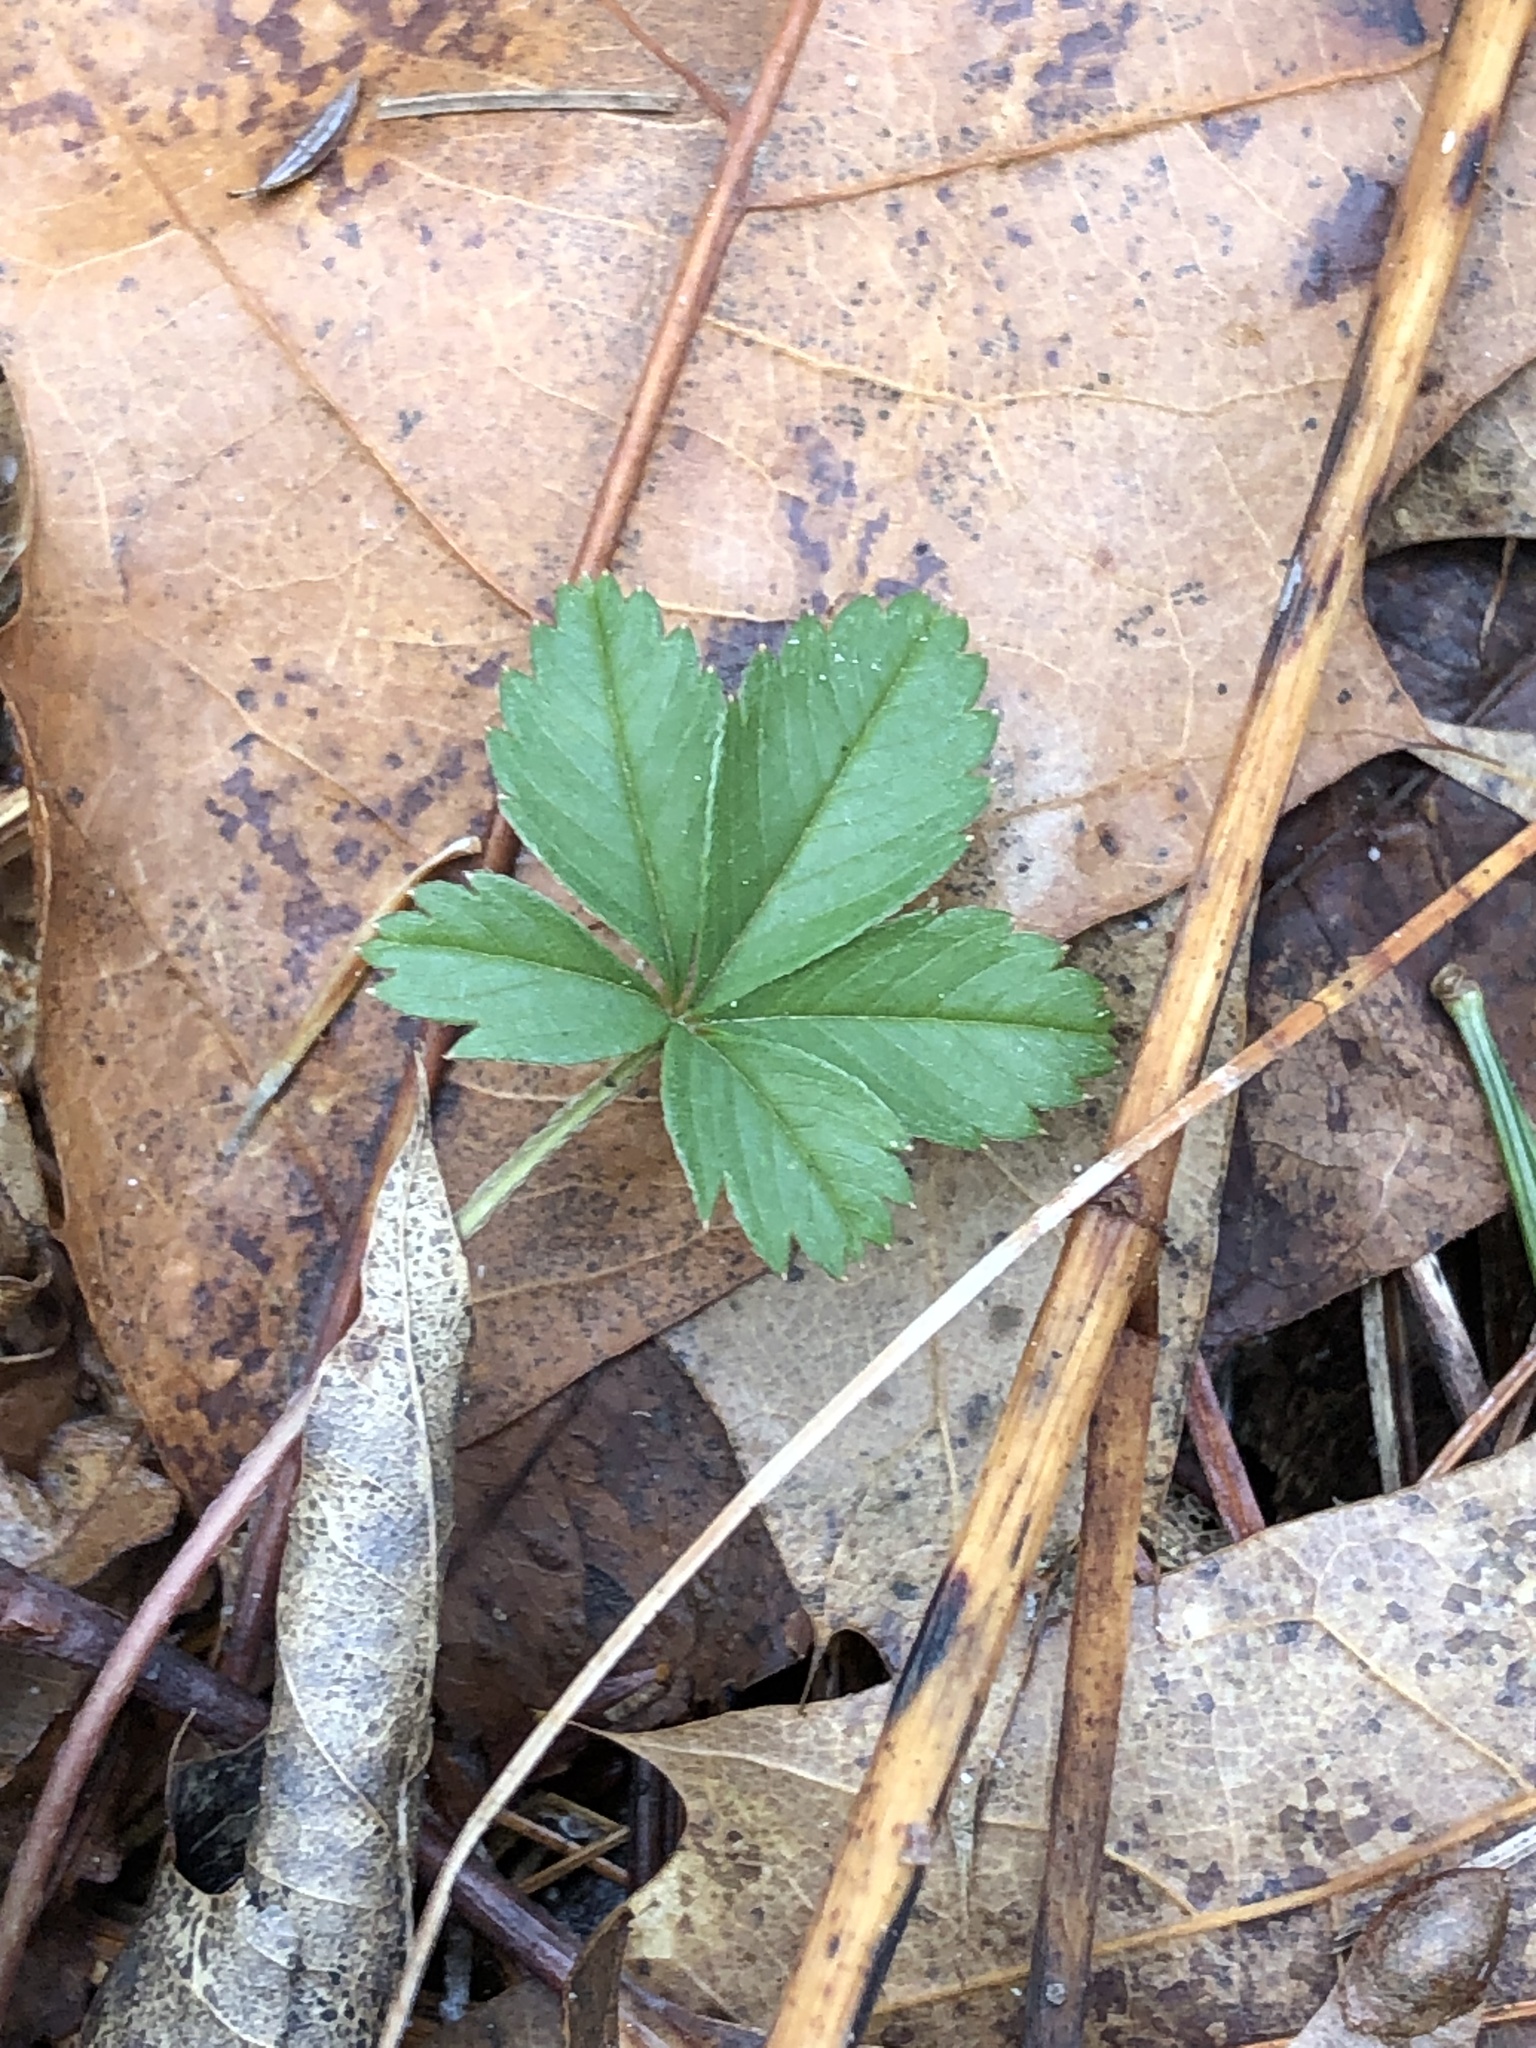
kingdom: Plantae
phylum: Tracheophyta
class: Magnoliopsida
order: Rosales
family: Rosaceae
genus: Potentilla
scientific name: Potentilla canadensis
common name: Canada cinquefoil
